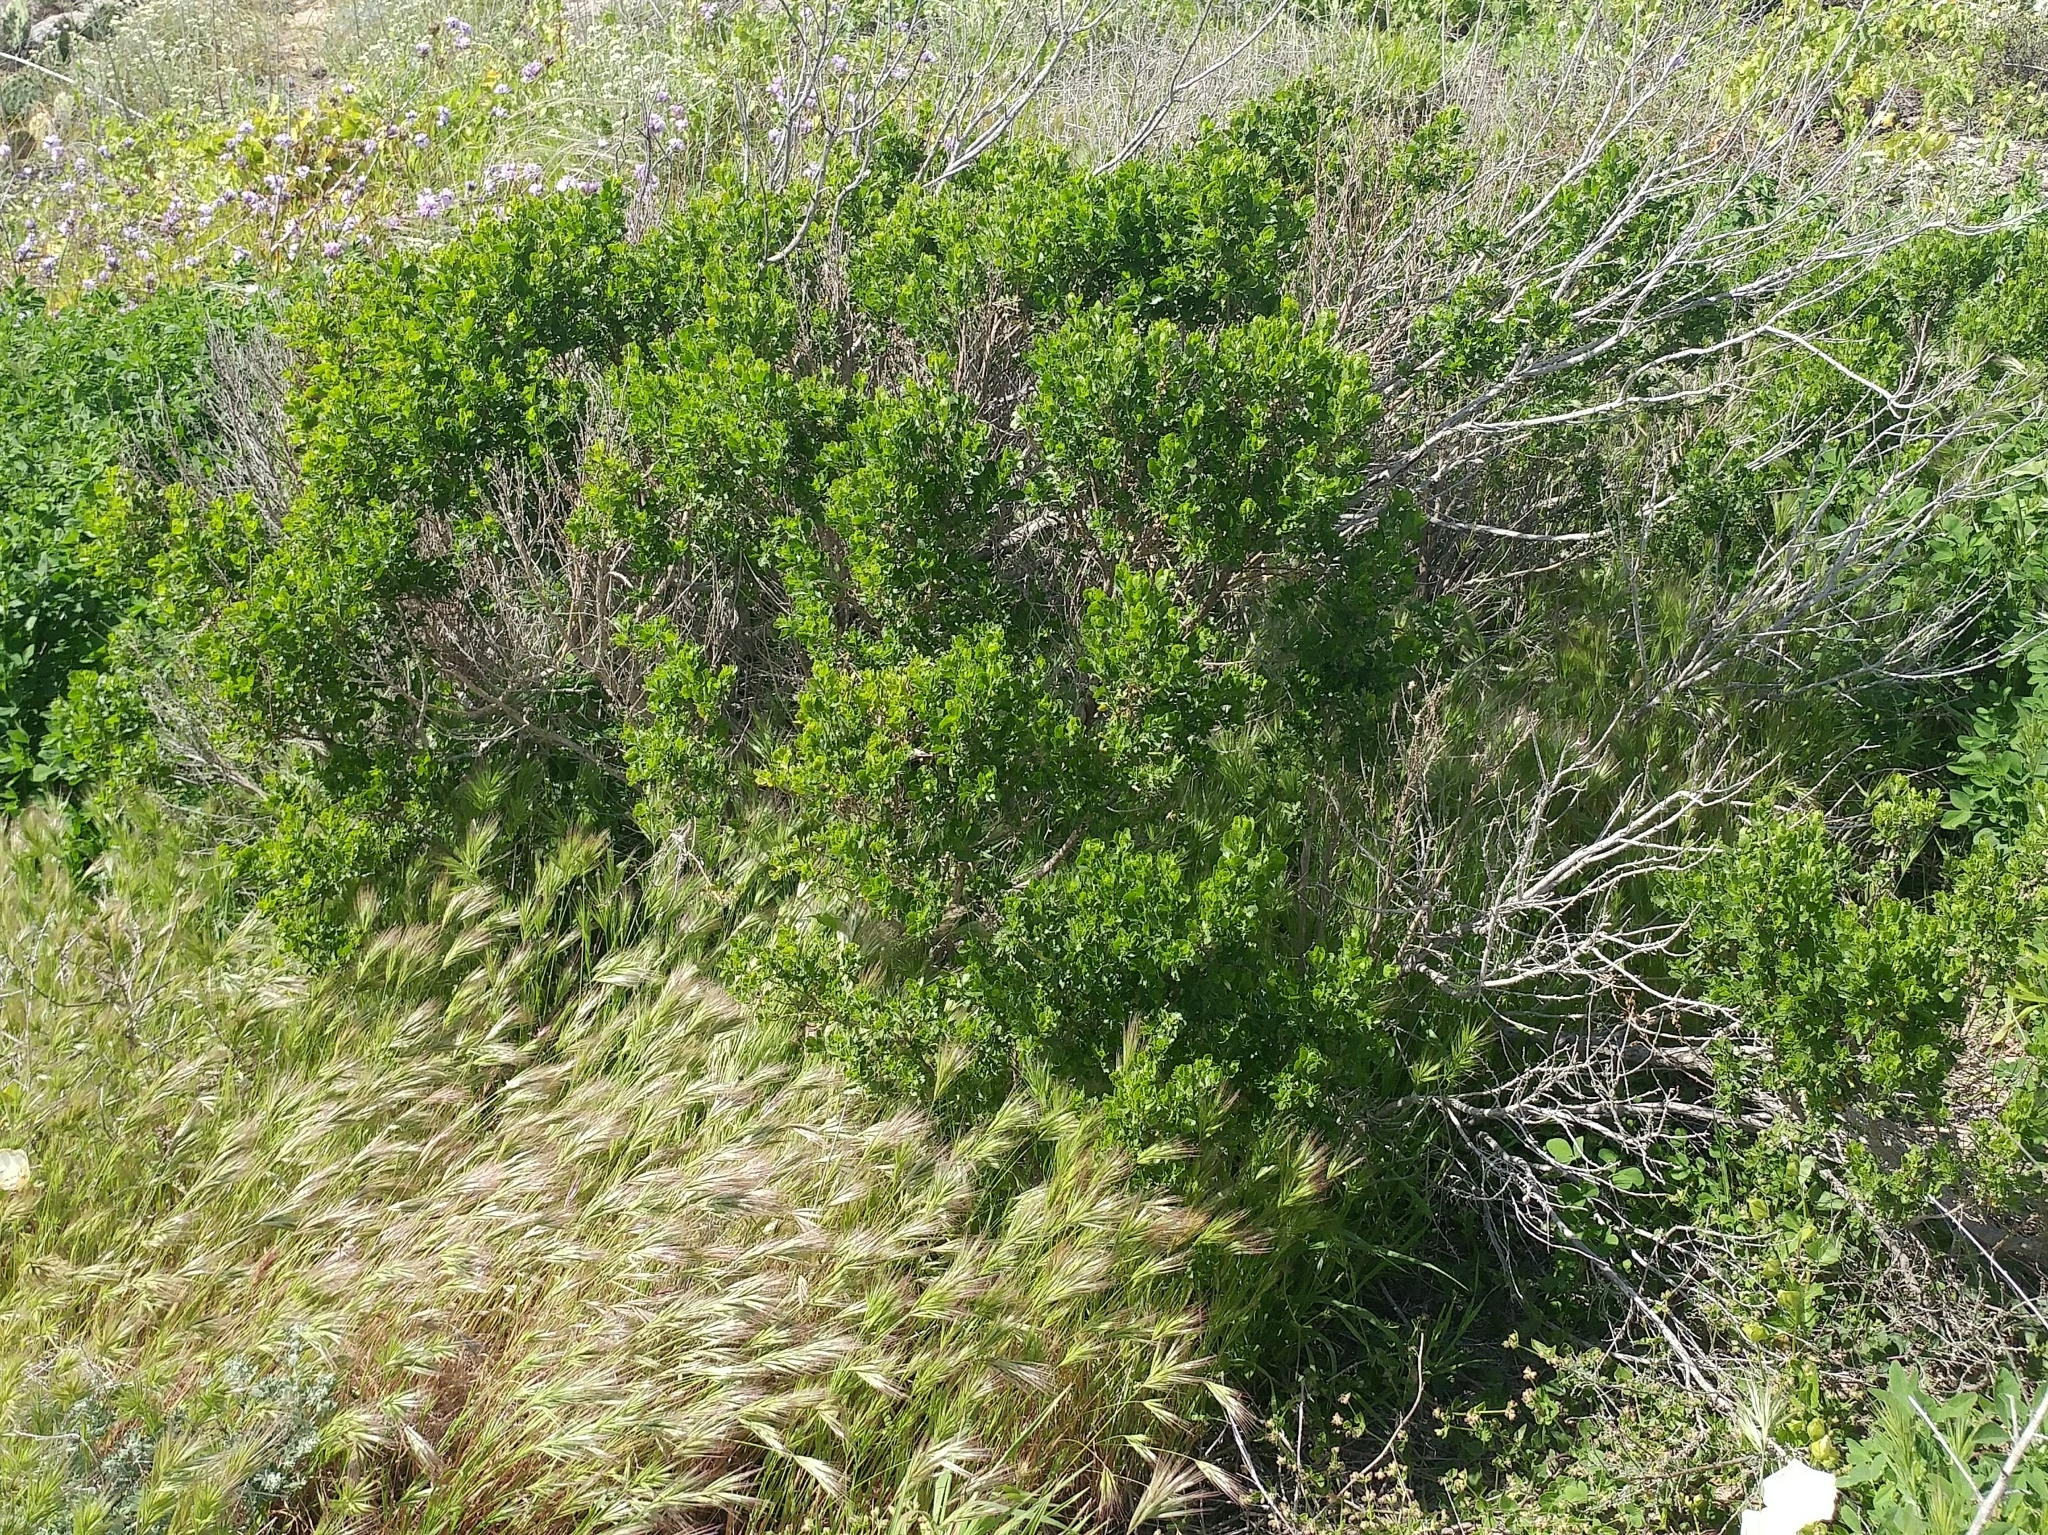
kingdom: Plantae
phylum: Tracheophyta
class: Magnoliopsida
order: Asterales
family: Asteraceae
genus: Baccharis
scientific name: Baccharis pilularis
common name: Coyotebrush
